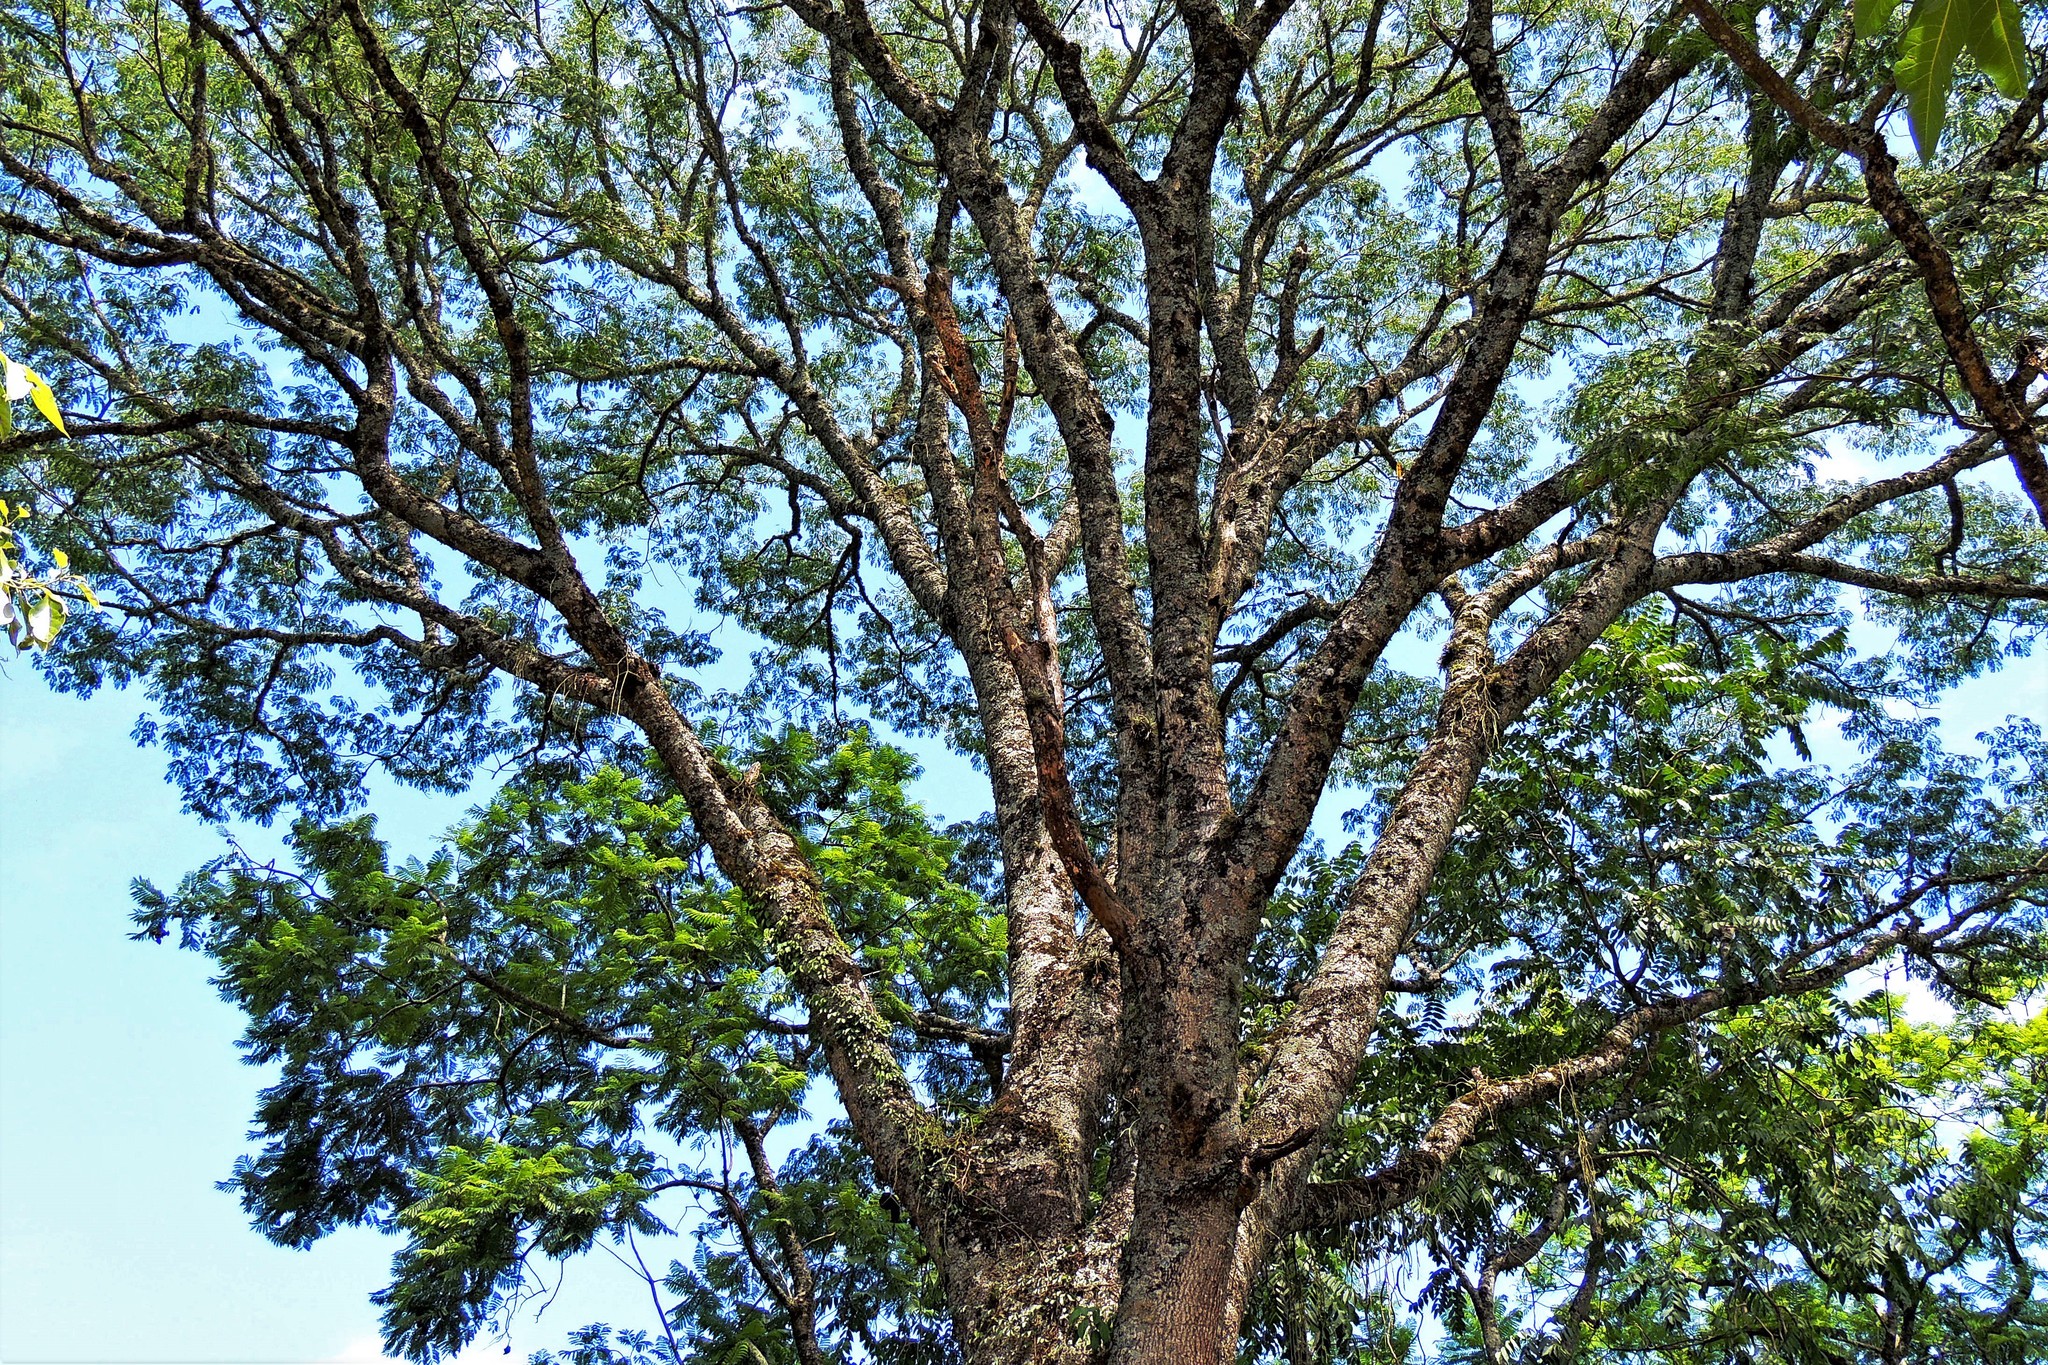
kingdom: Plantae
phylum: Tracheophyta
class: Magnoliopsida
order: Fabales
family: Fabaceae
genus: Tipuana
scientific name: Tipuana tipu
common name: Tiputree
